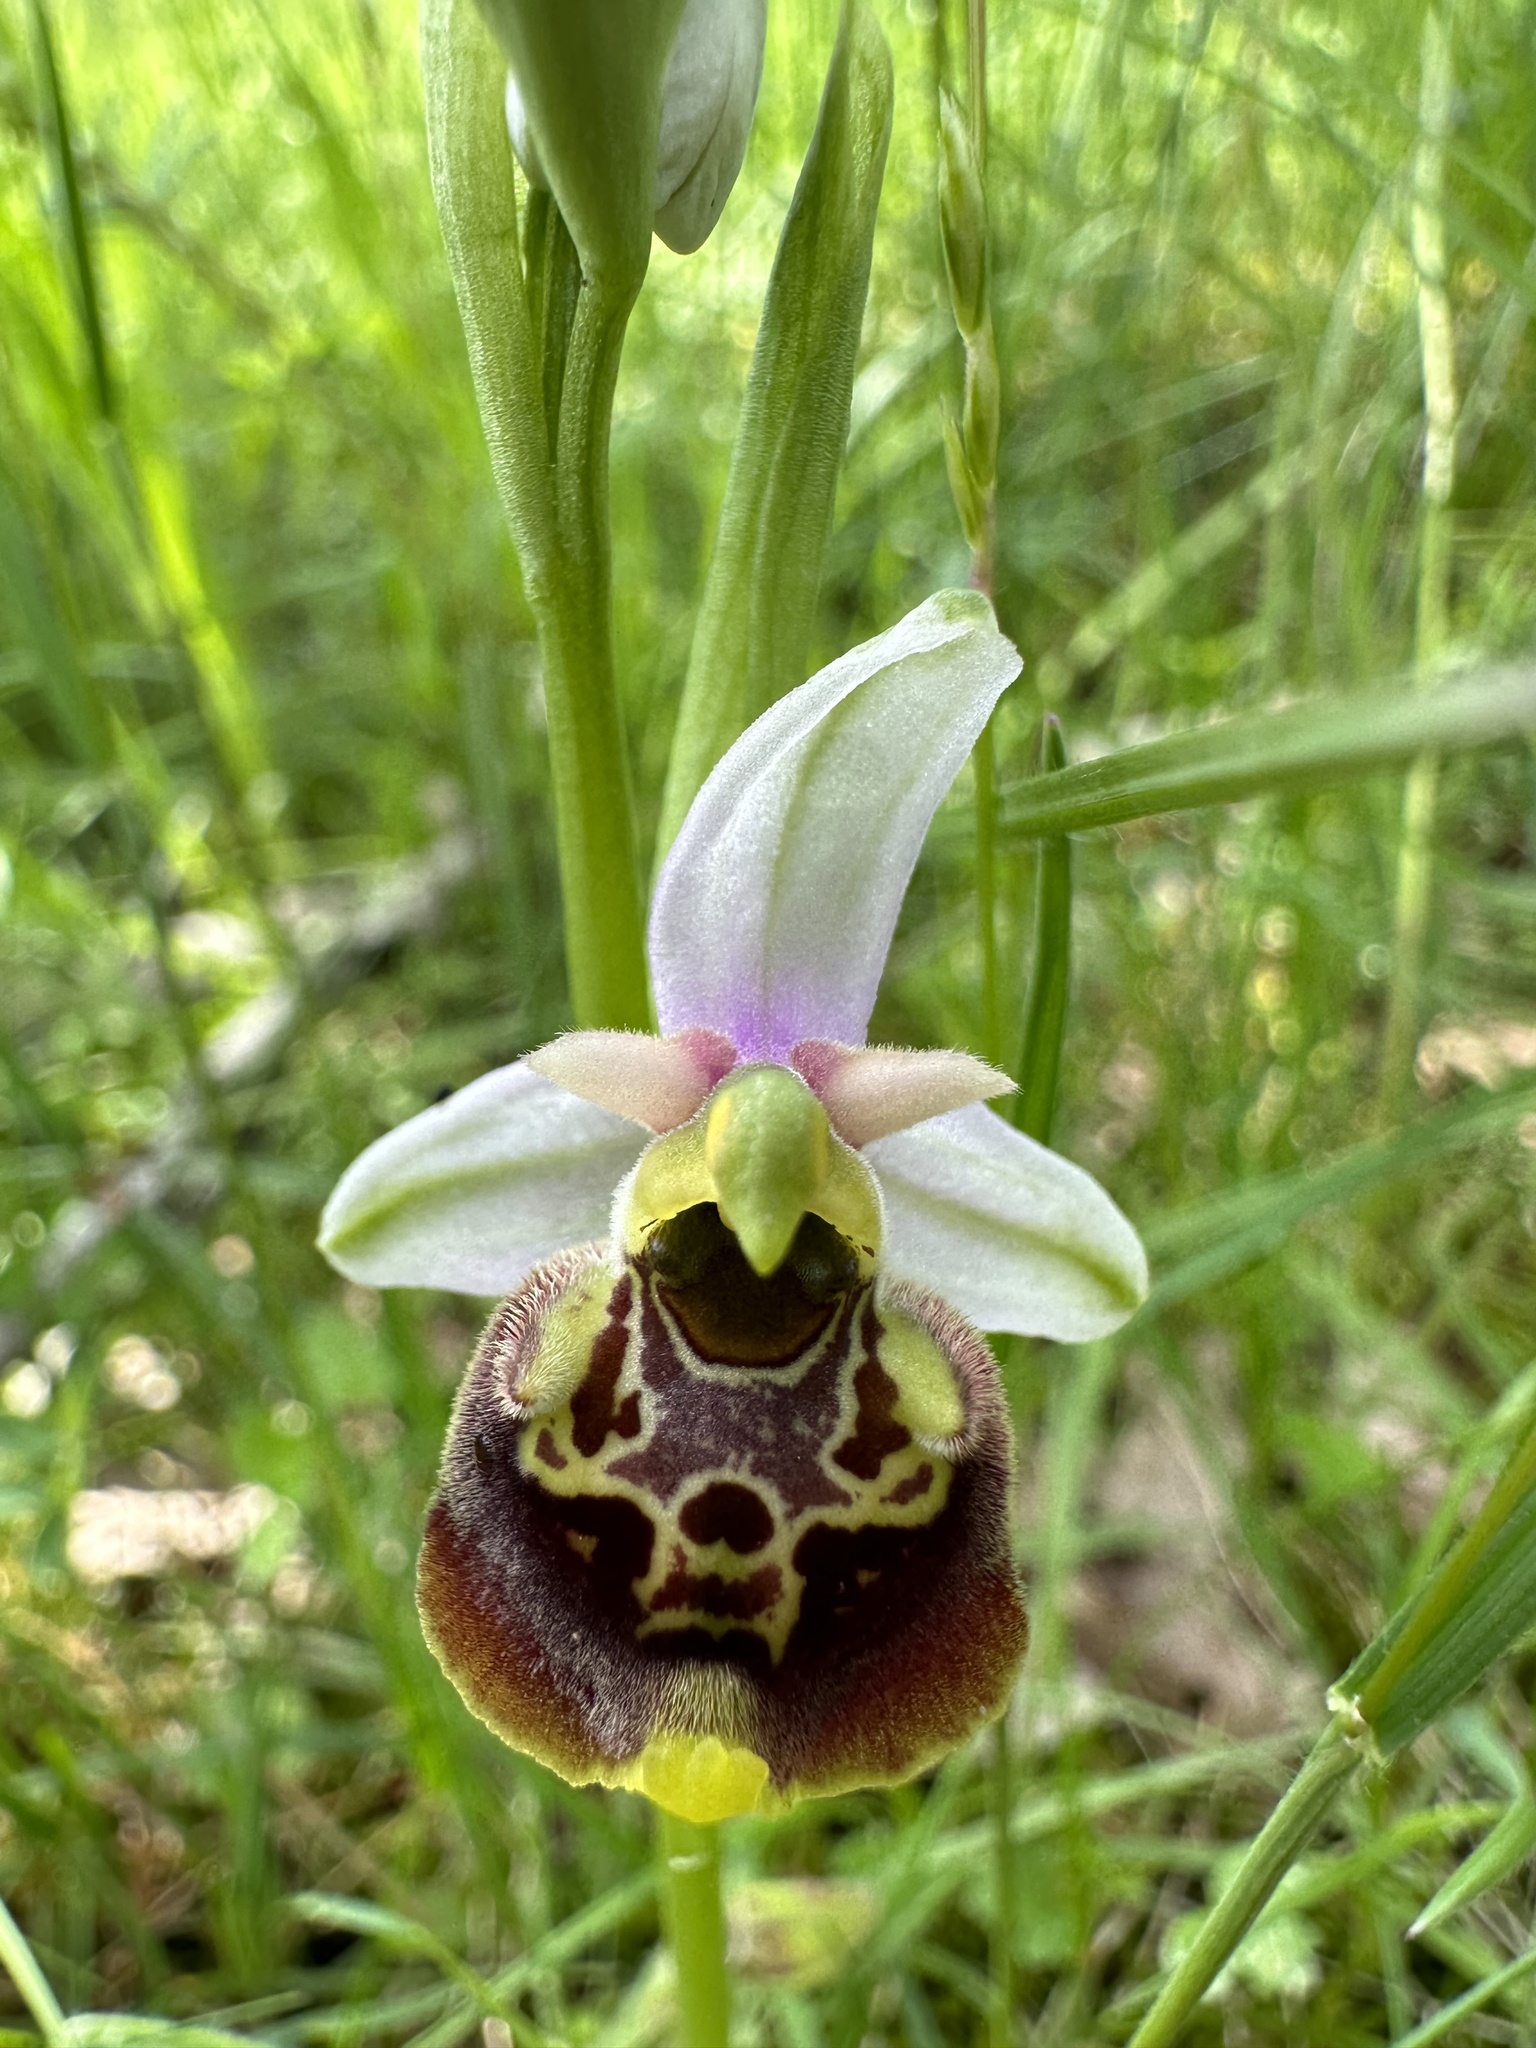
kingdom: Plantae
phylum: Tracheophyta
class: Liliopsida
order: Asparagales
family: Orchidaceae
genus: Ophrys
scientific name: Ophrys holosericea
